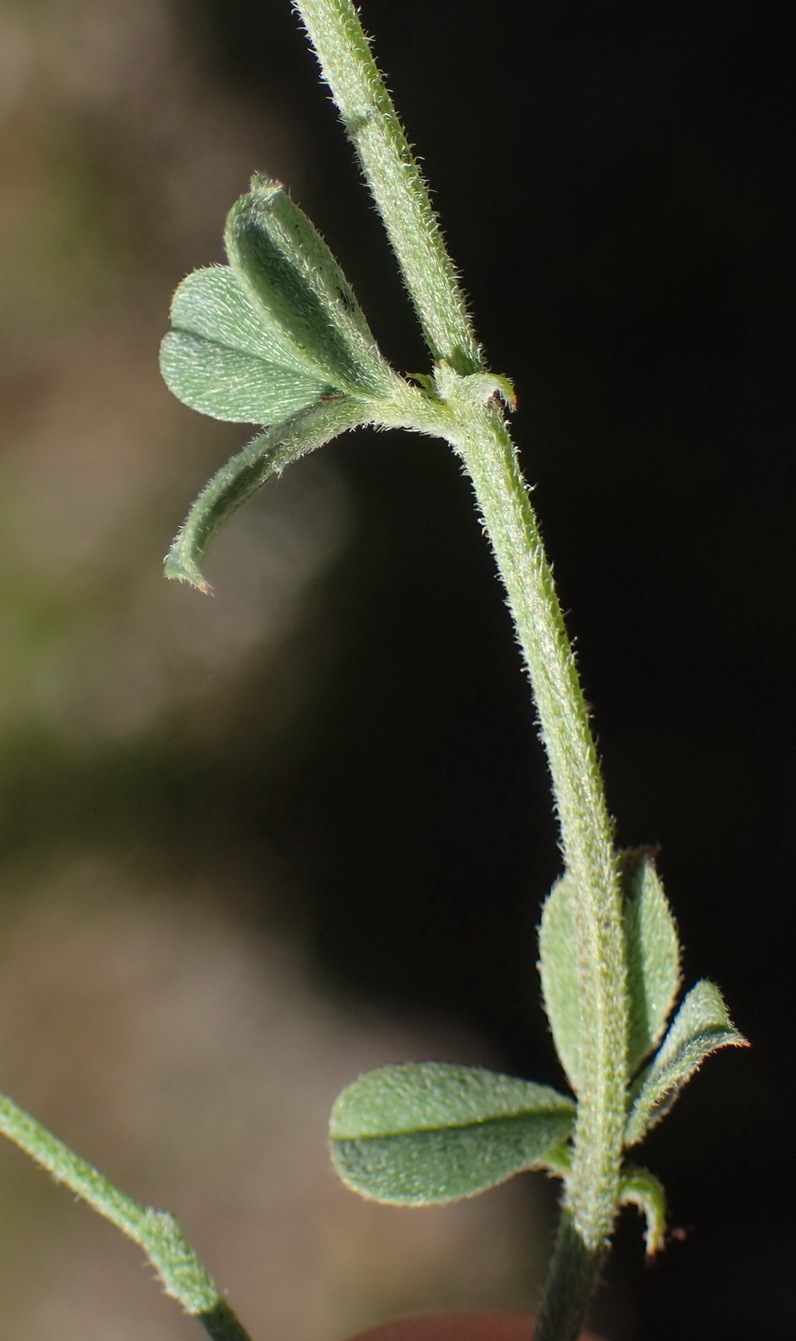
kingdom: Plantae
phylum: Tracheophyta
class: Magnoliopsida
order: Fabales
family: Fabaceae
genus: Indigofera
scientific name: Indigofera priorii
